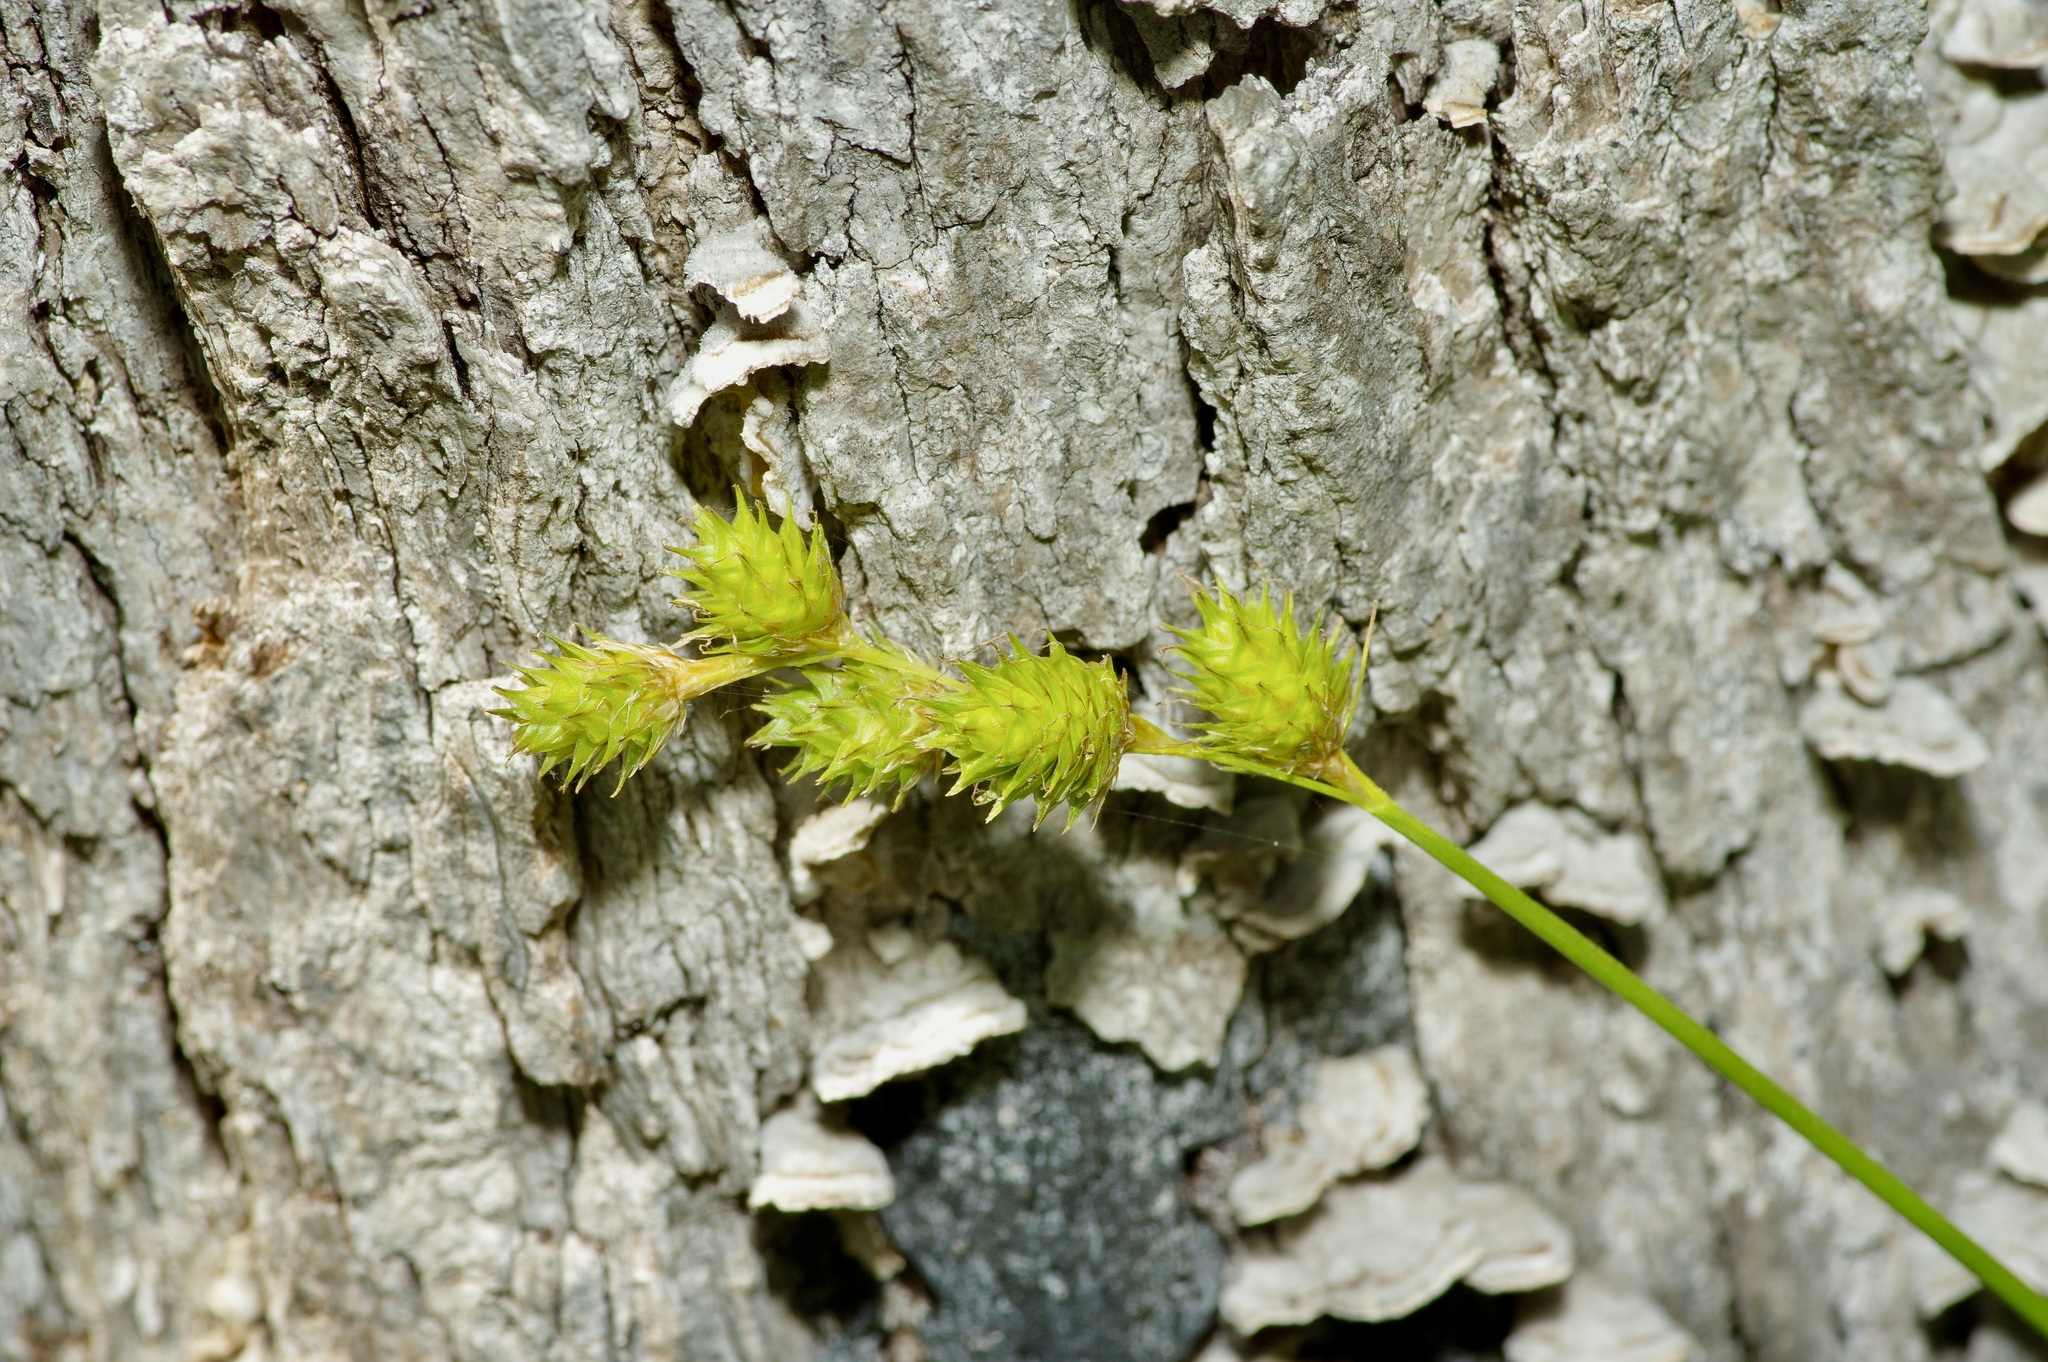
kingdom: Plantae
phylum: Tracheophyta
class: Liliopsida
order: Poales
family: Cyperaceae
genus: Carex
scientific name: Carex tribuloides
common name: Blunt broom sedge
